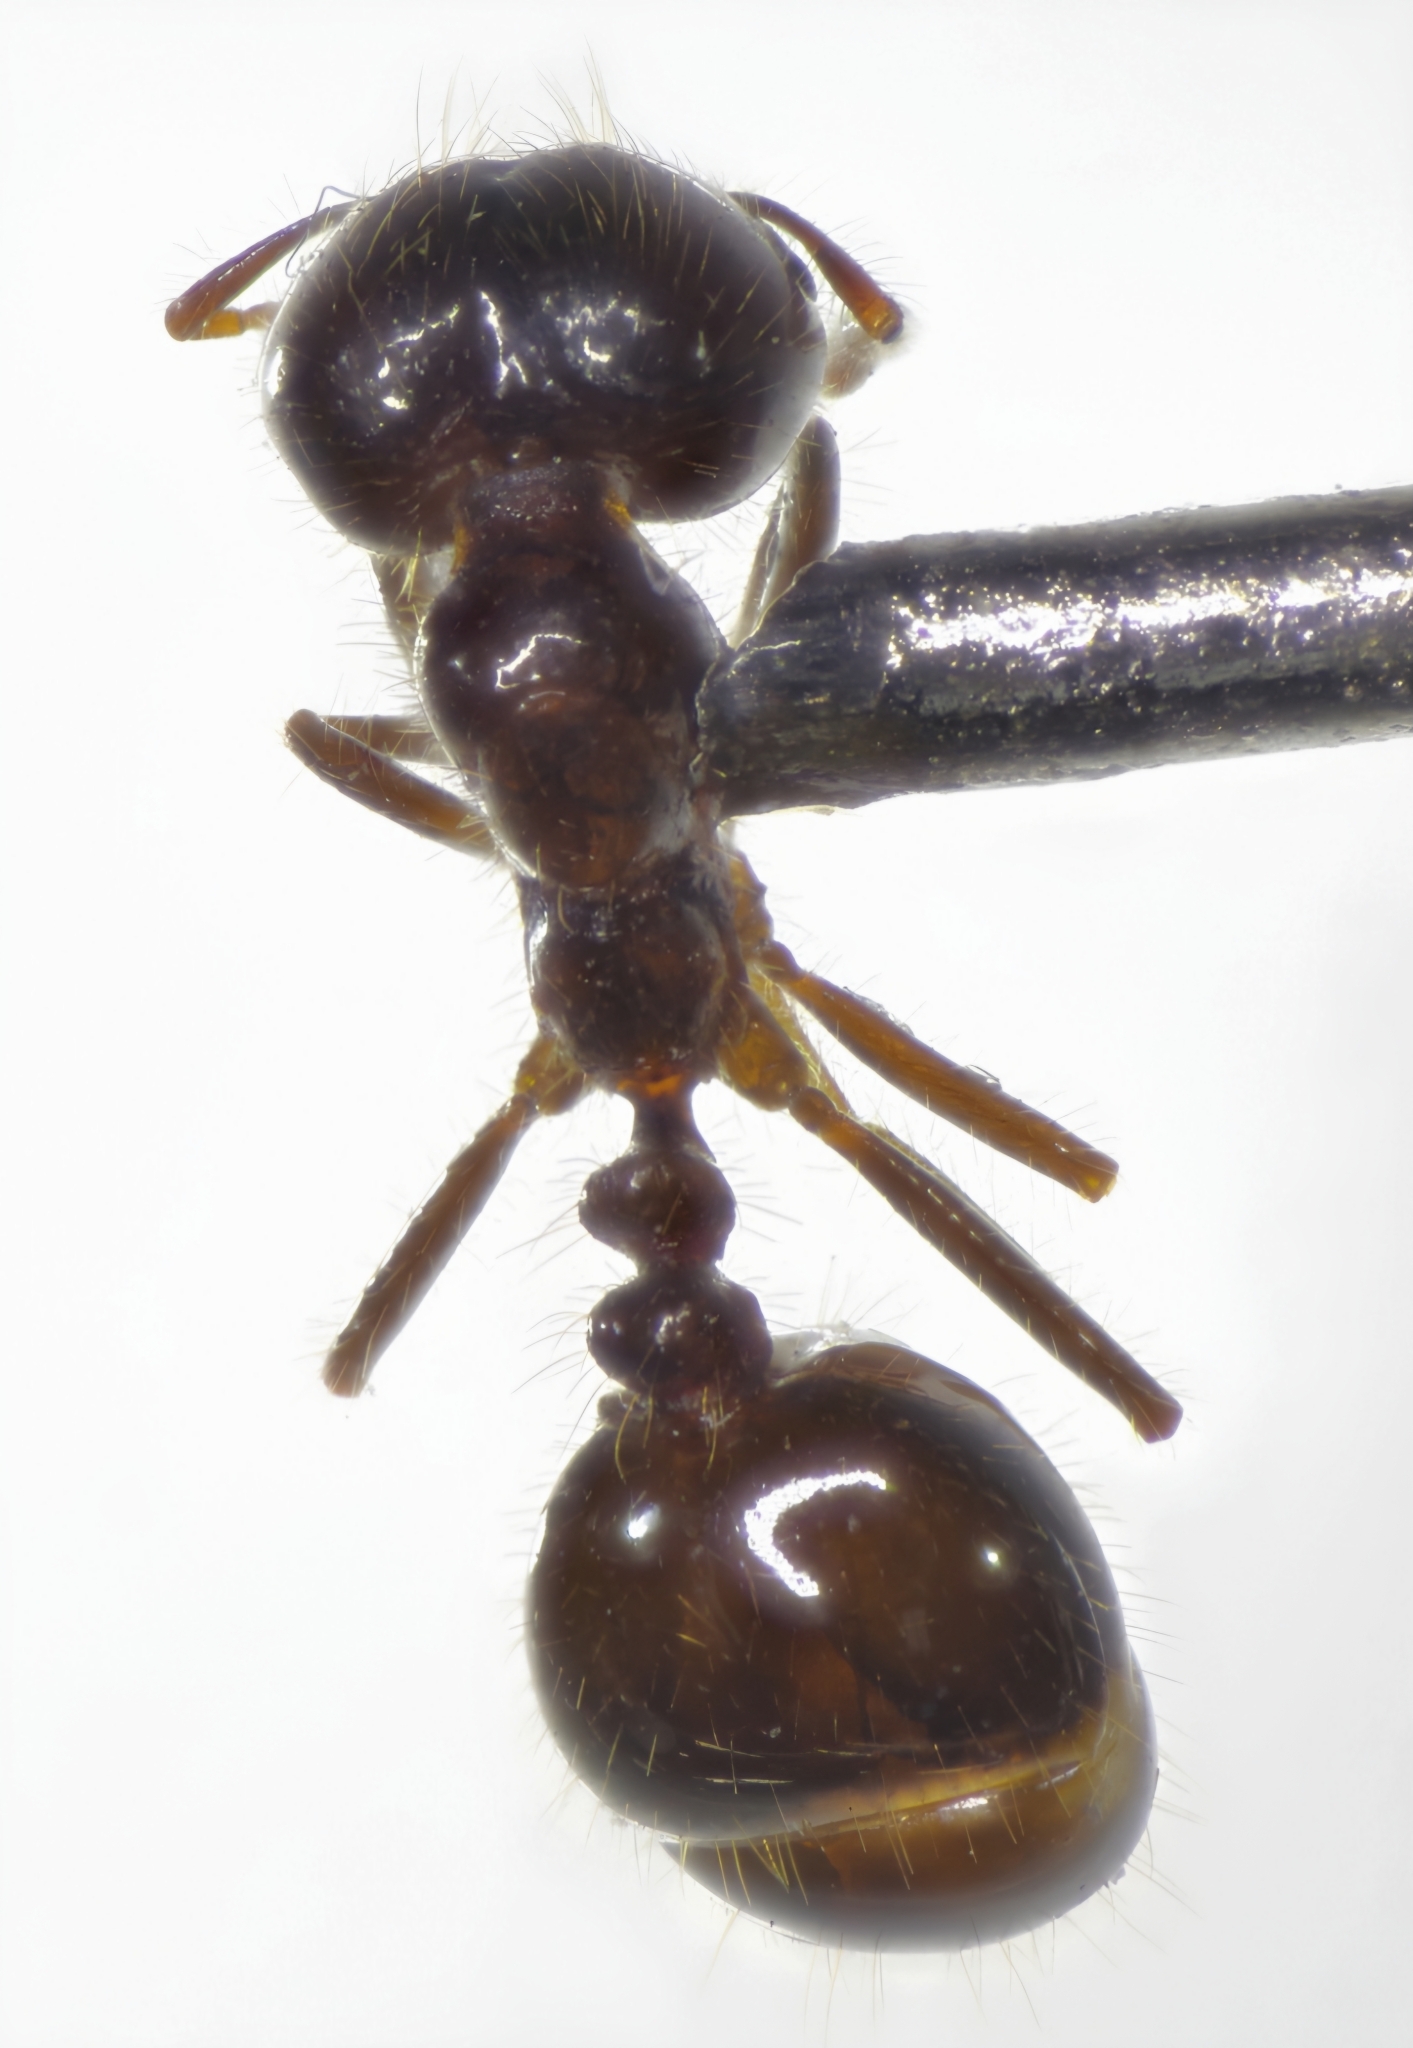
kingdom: Animalia
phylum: Arthropoda
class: Insecta
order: Hymenoptera
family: Formicidae
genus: Solenopsis
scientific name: Solenopsis gayi
